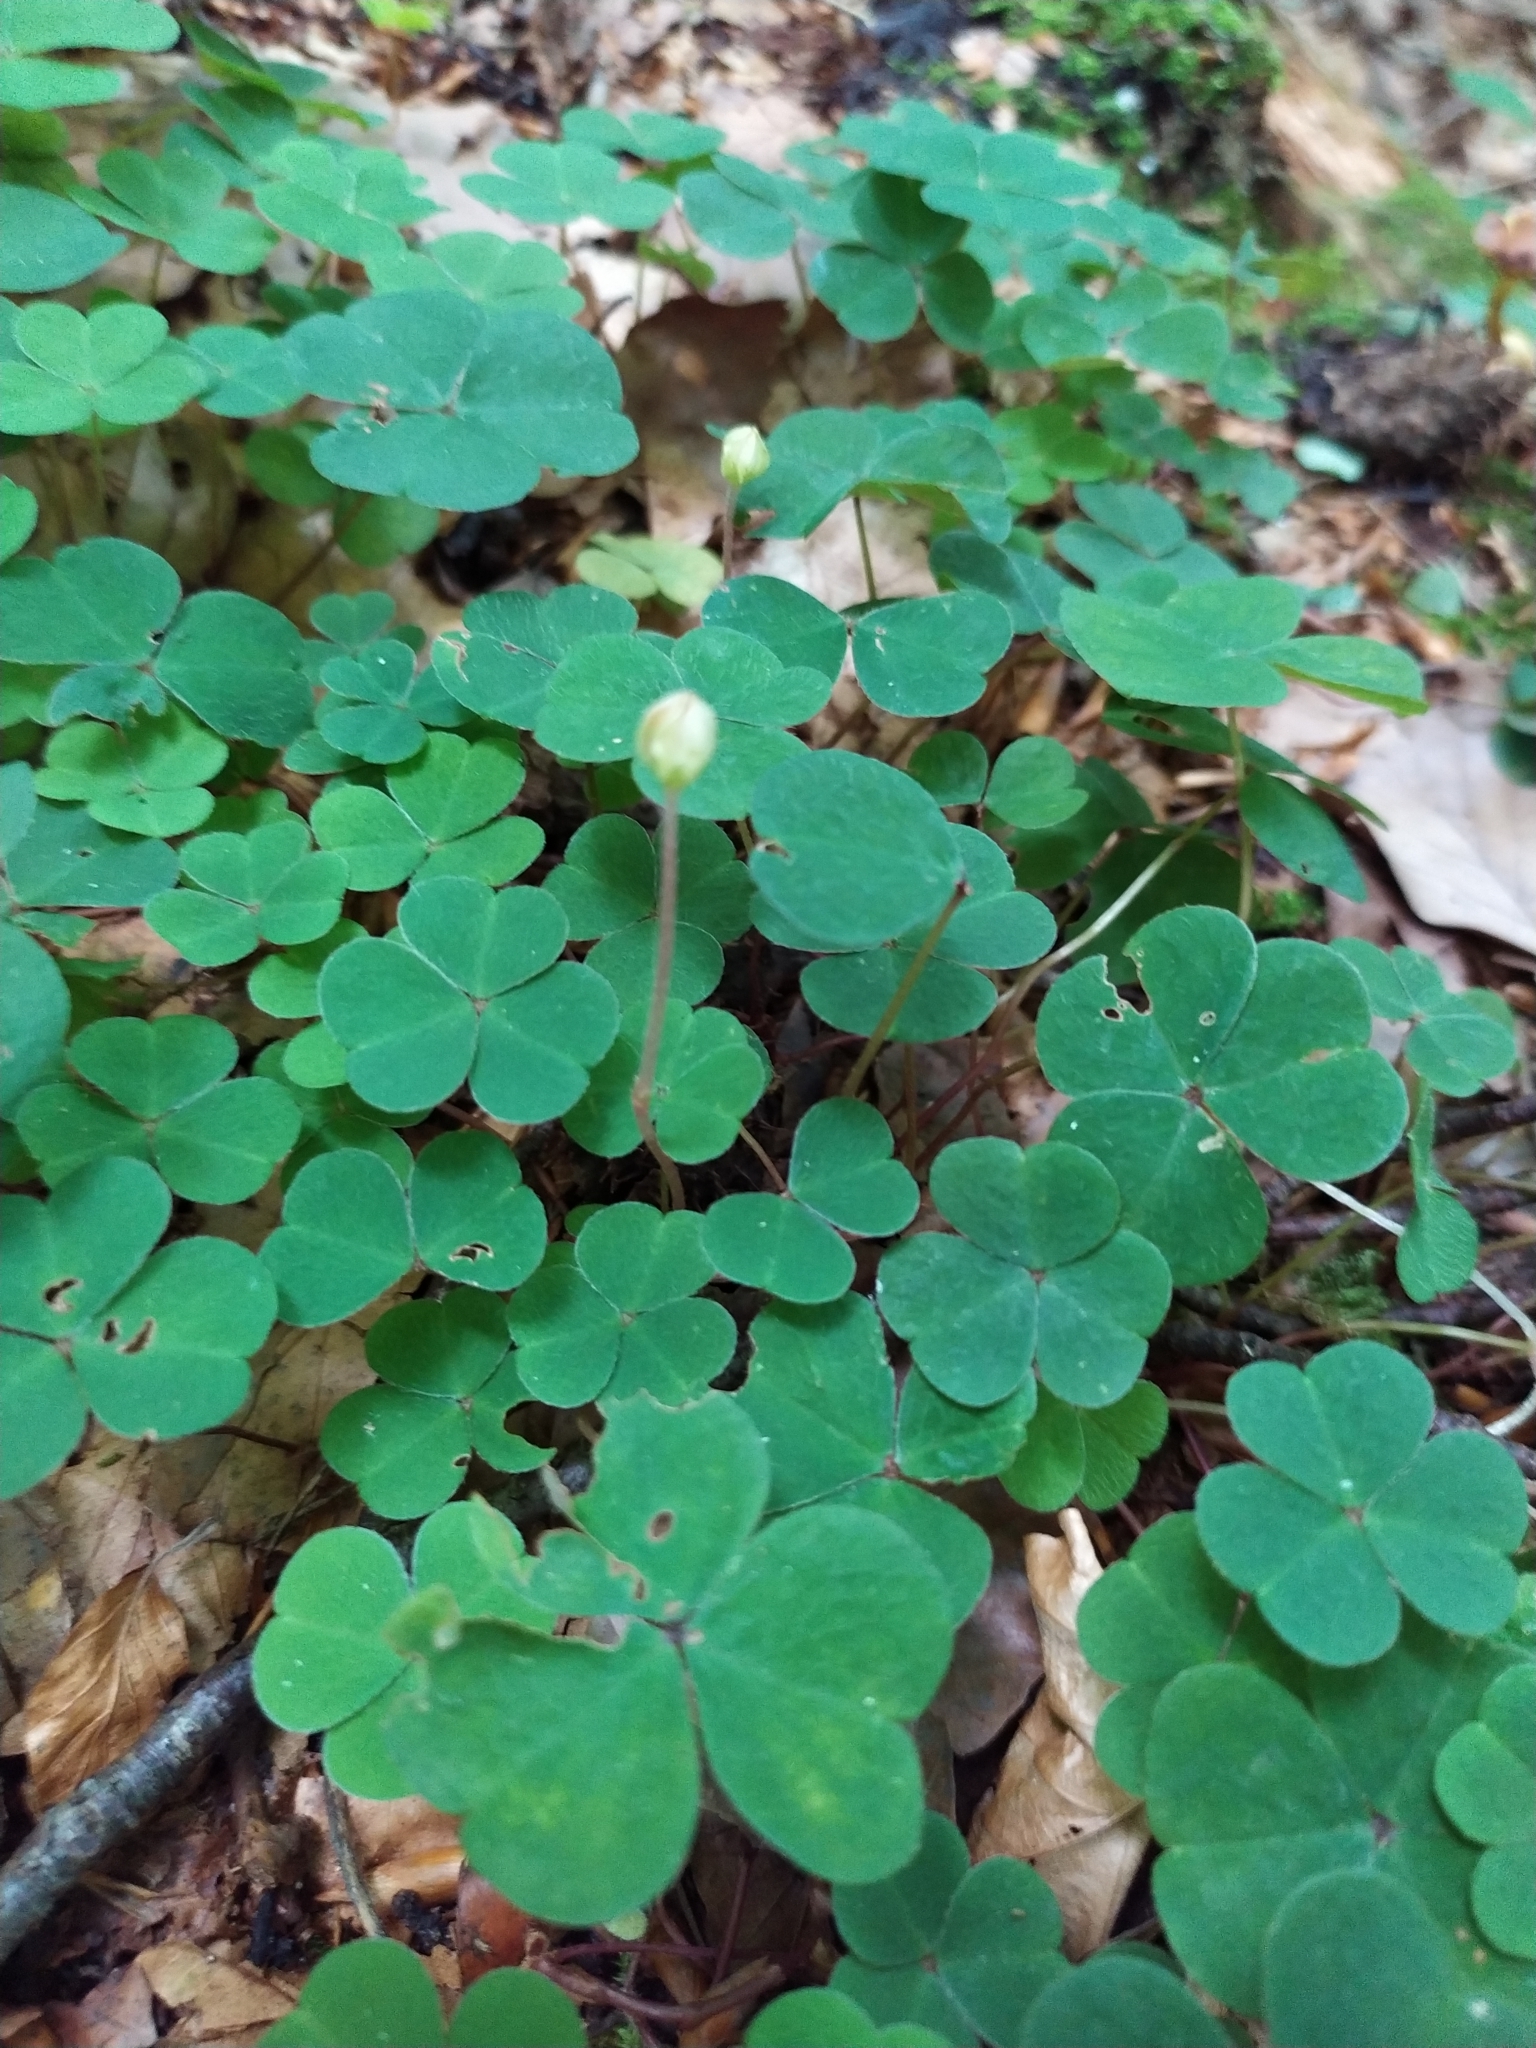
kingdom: Plantae
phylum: Tracheophyta
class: Magnoliopsida
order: Oxalidales
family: Oxalidaceae
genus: Oxalis
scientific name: Oxalis acetosella
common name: Wood-sorrel
